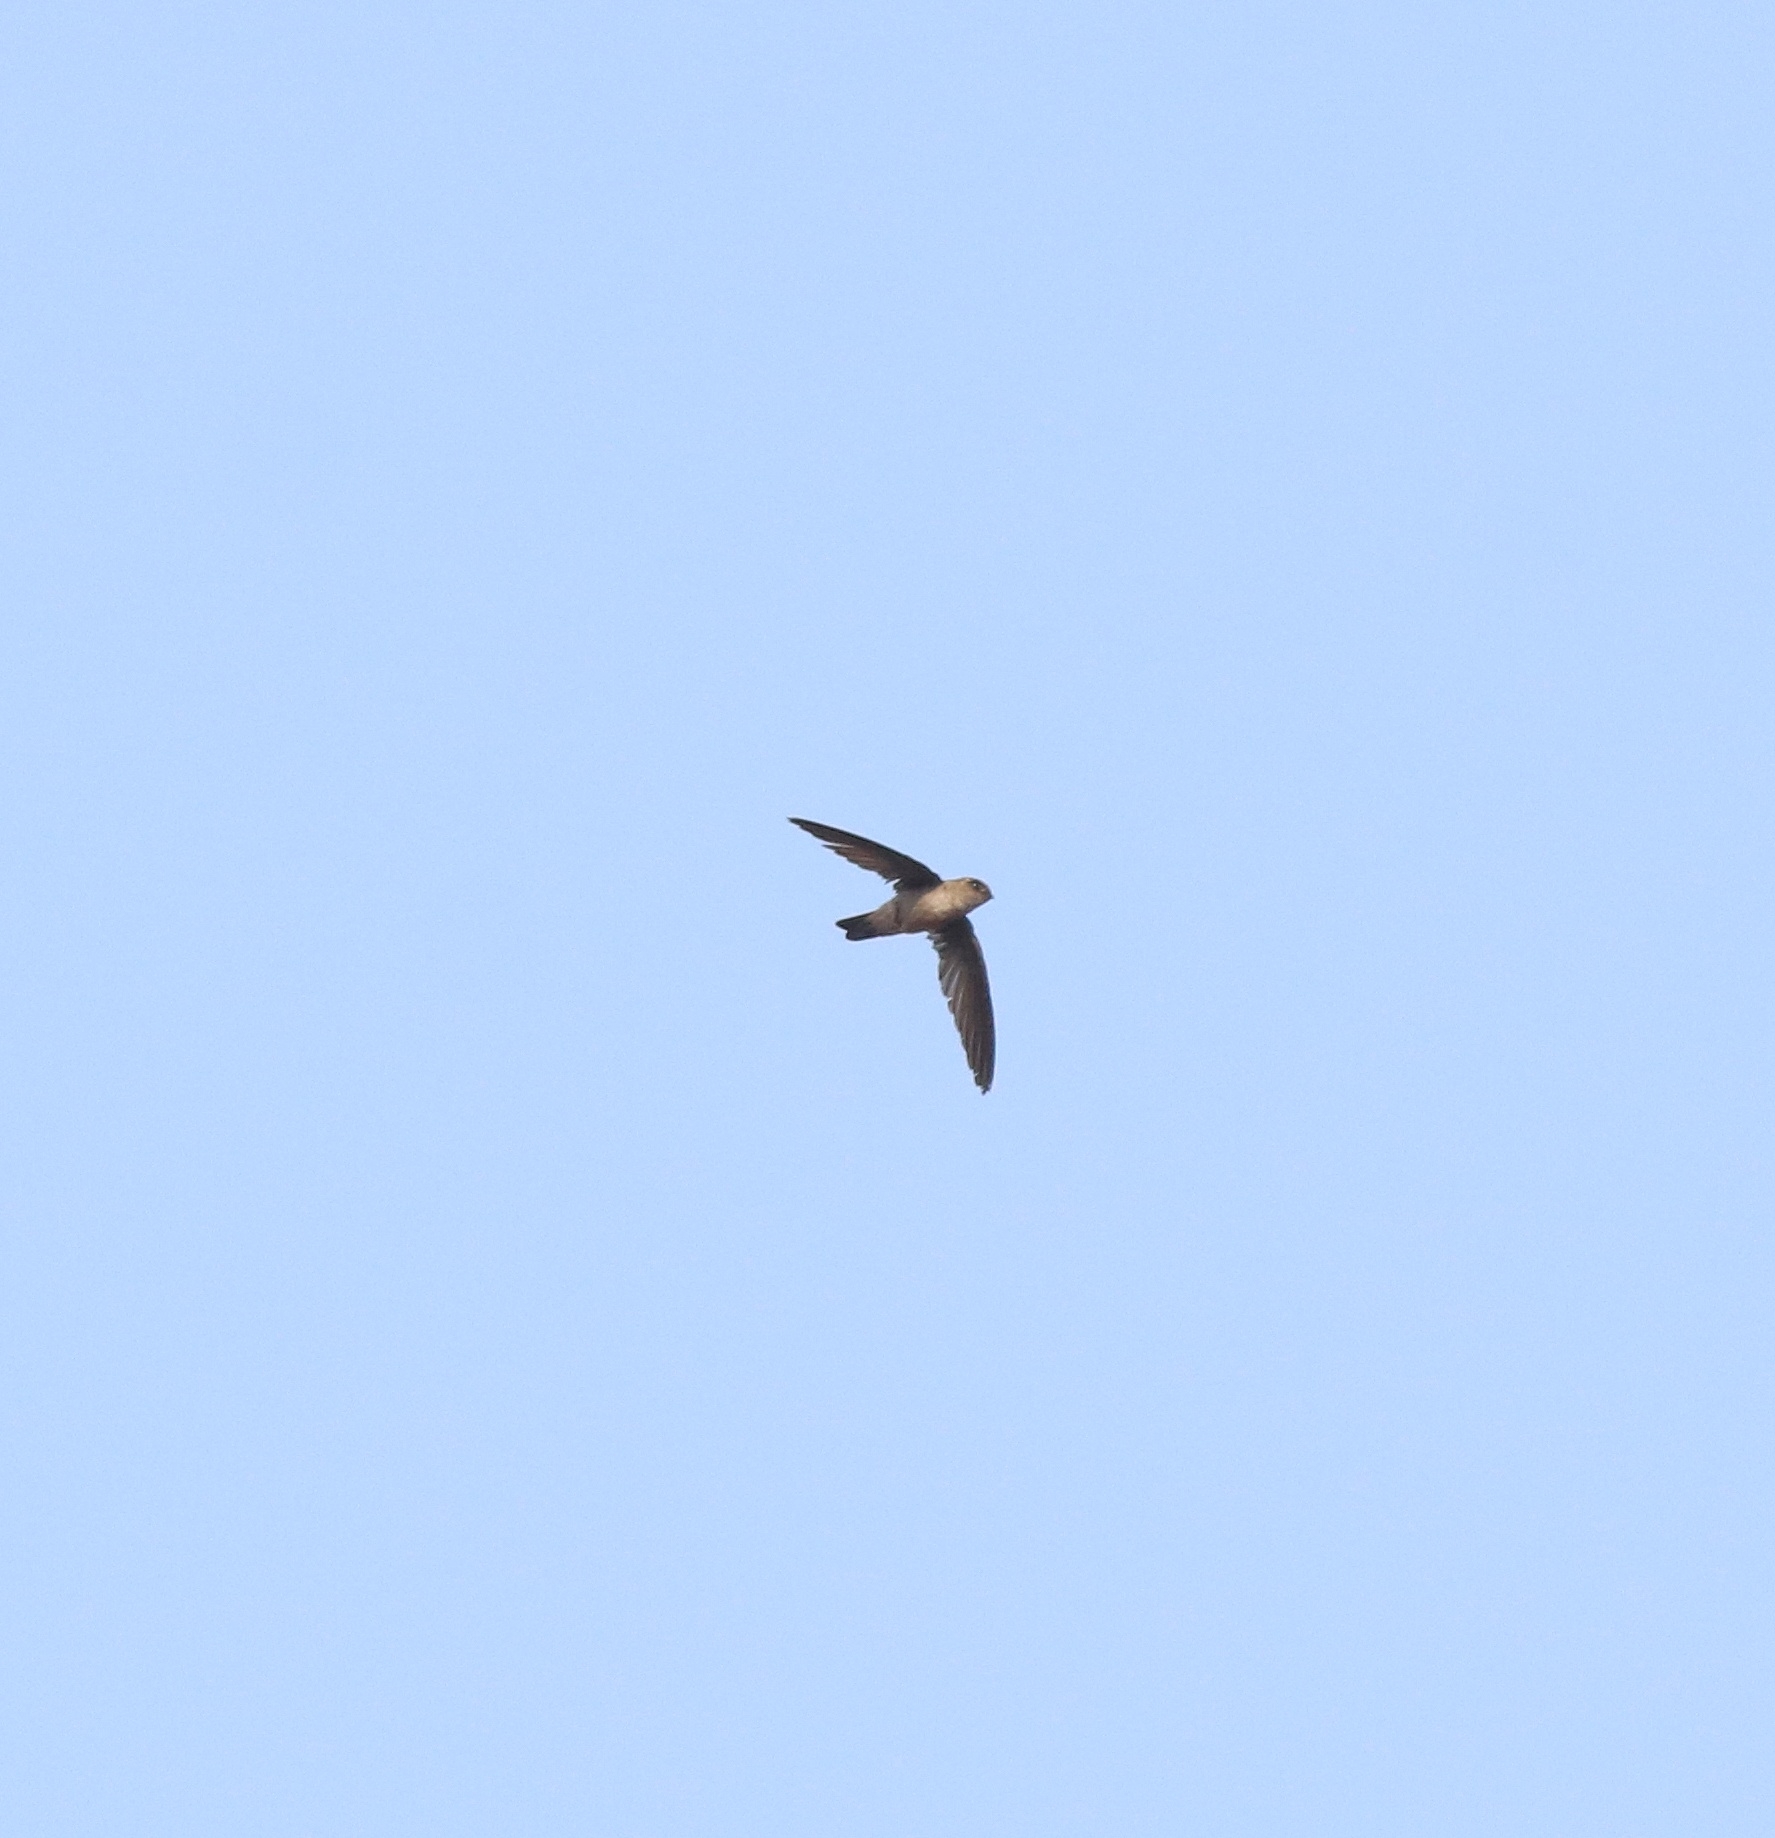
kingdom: Animalia
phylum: Chordata
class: Aves
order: Apodiformes
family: Apodidae
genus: Aerodramus
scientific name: Aerodramus unicolor
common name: Indian swiftlet
